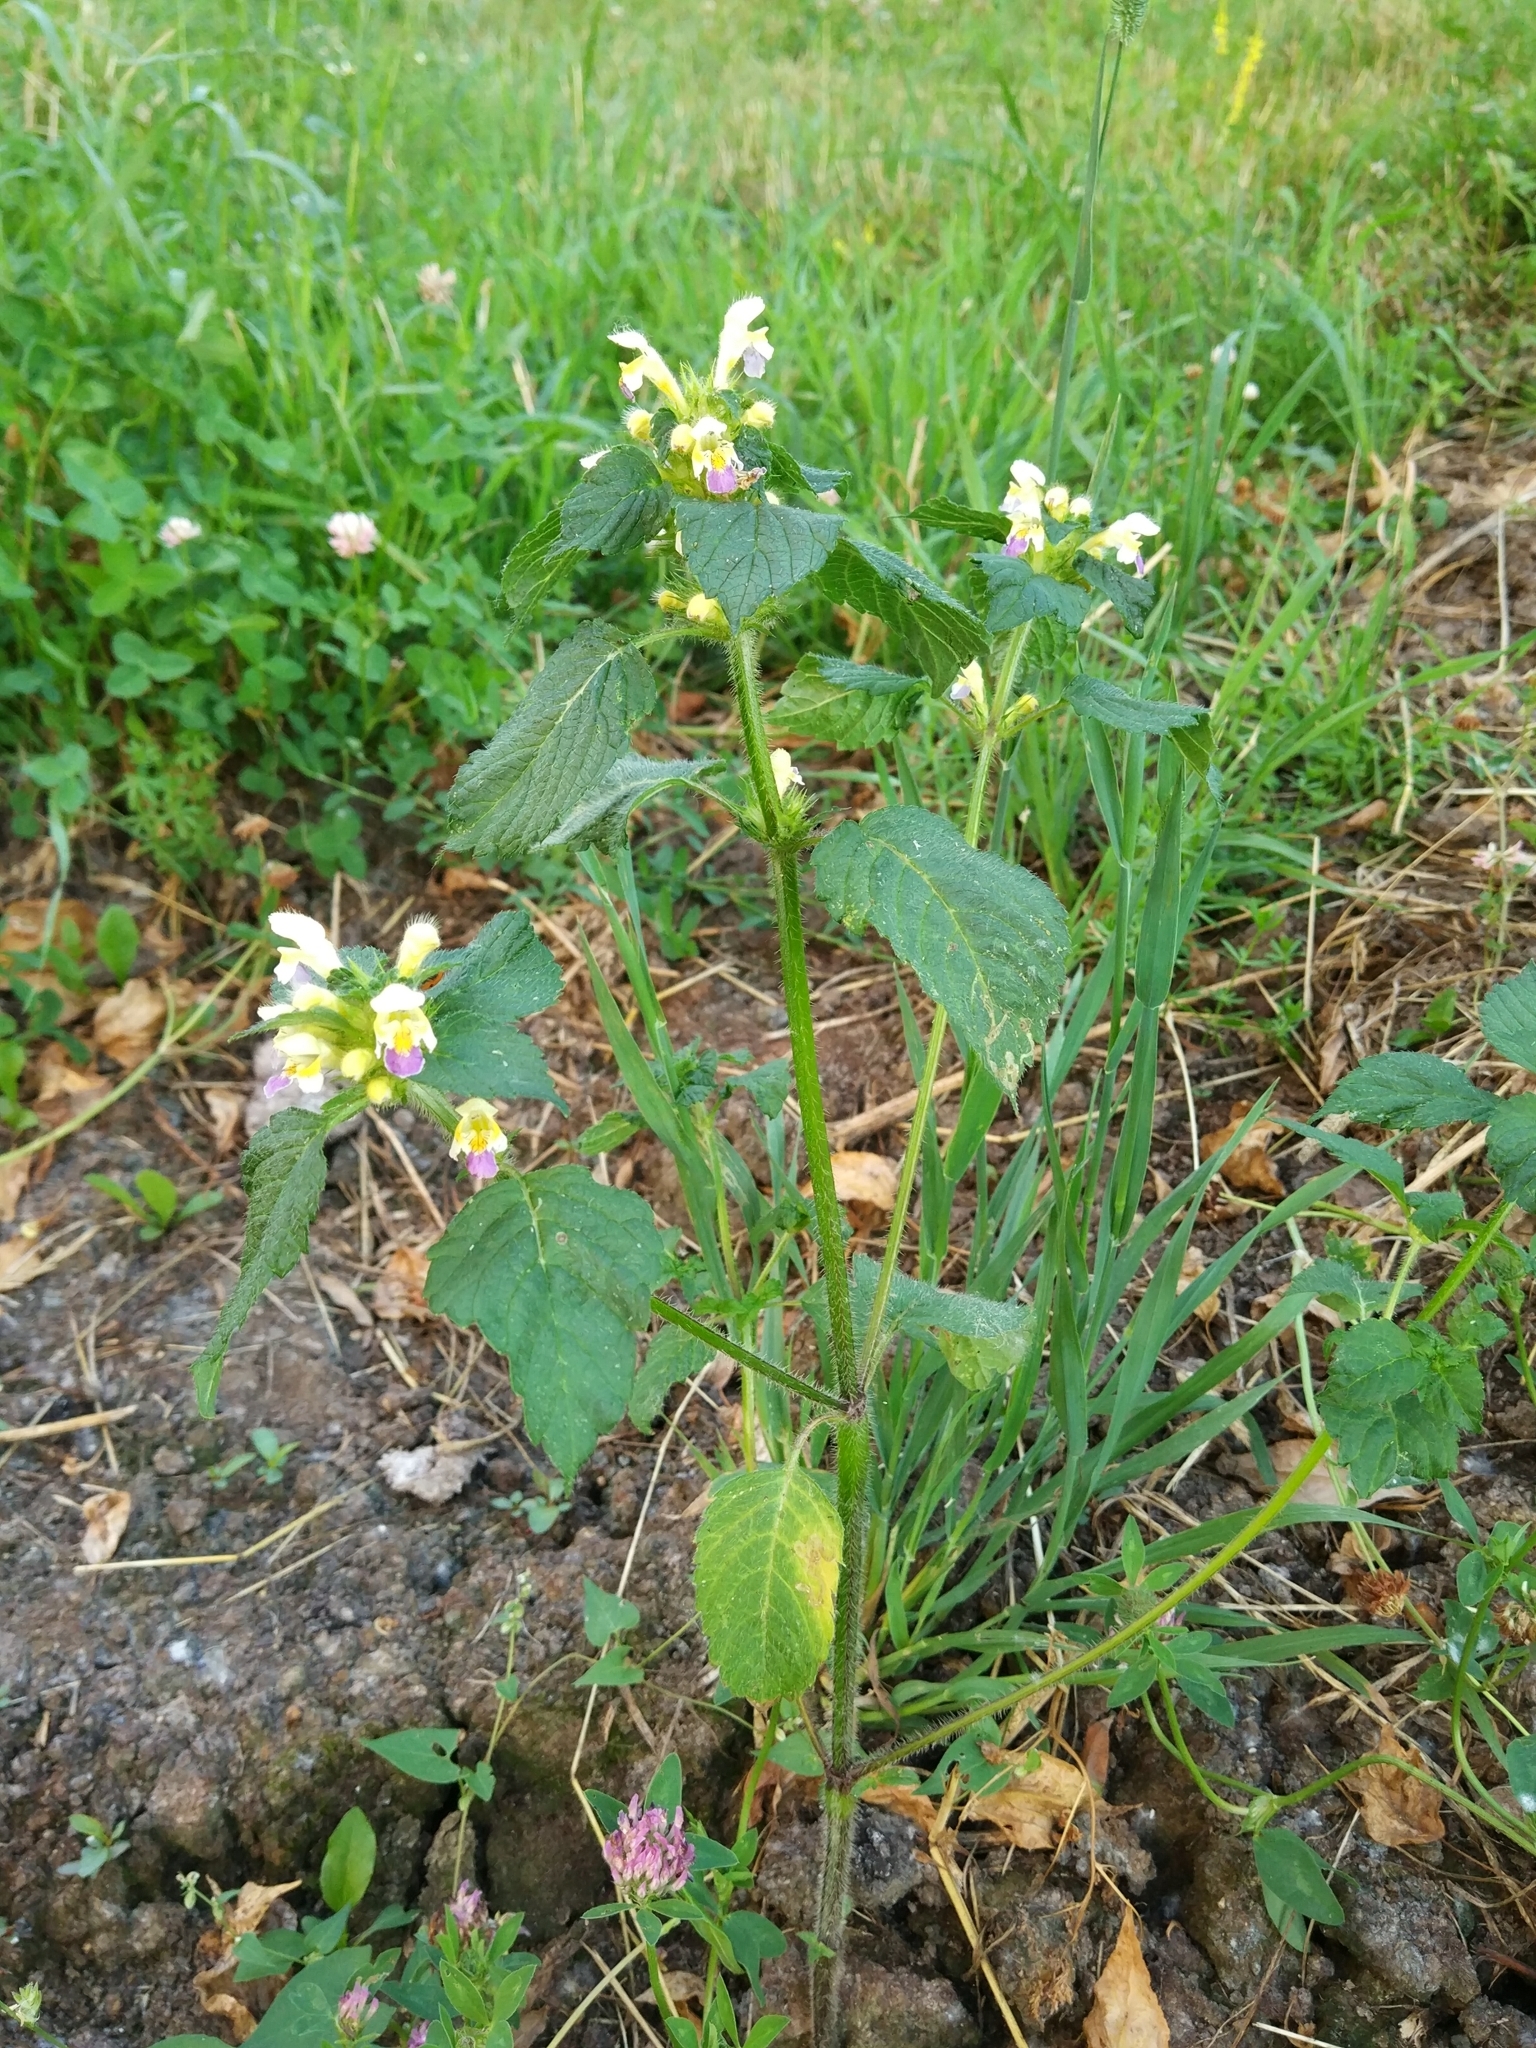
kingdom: Plantae
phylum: Tracheophyta
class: Magnoliopsida
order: Lamiales
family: Lamiaceae
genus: Galeopsis
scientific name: Galeopsis speciosa
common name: Large-flowered hemp-nettle
